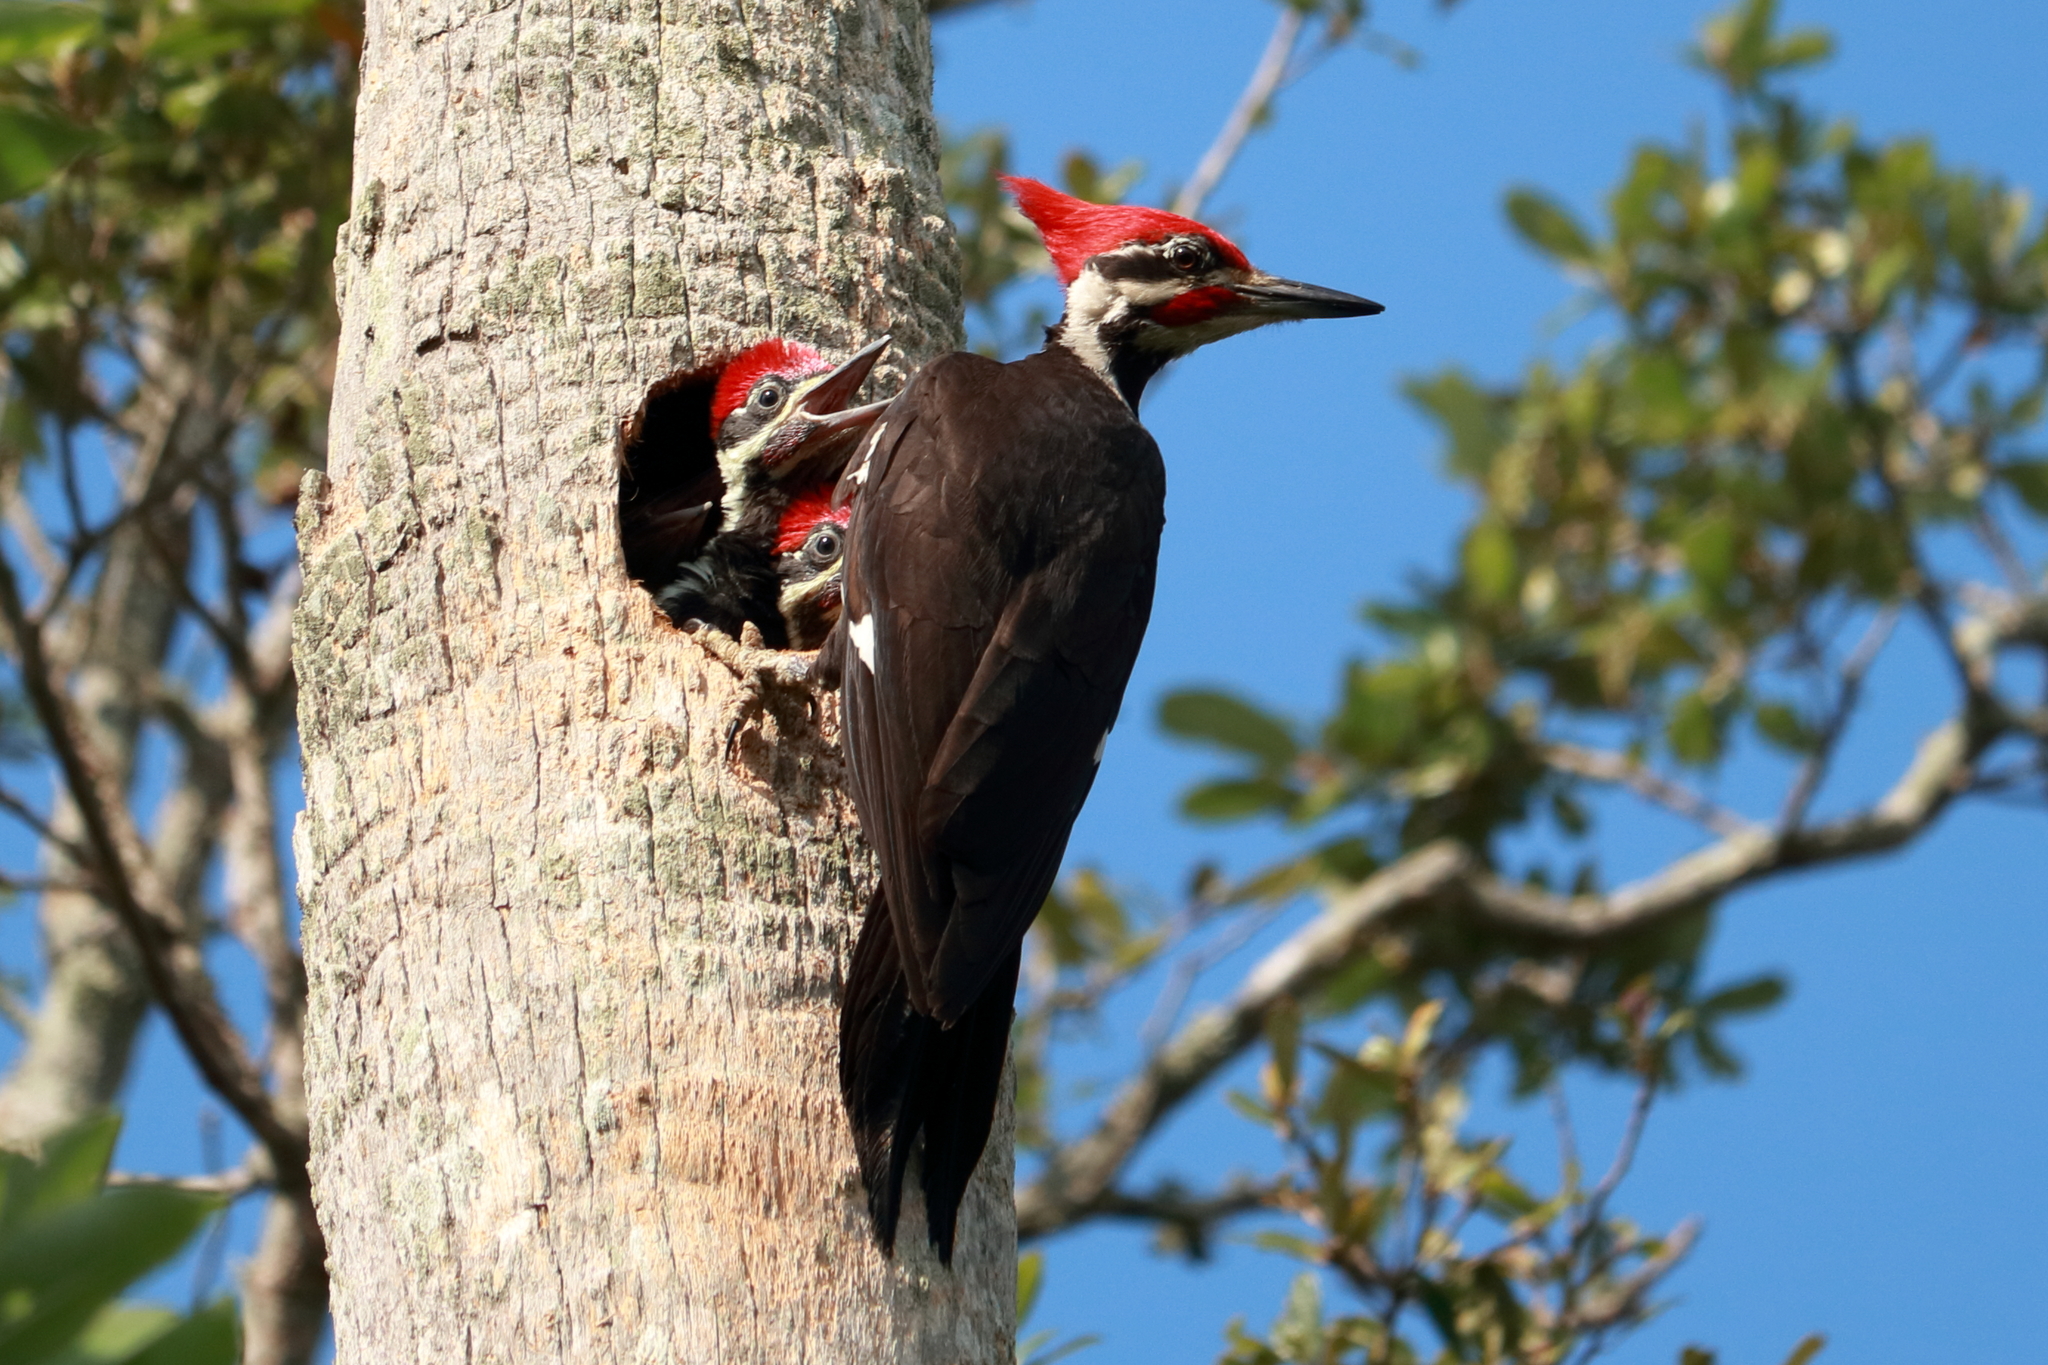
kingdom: Animalia
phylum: Chordata
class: Aves
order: Piciformes
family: Picidae
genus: Dryocopus
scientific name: Dryocopus pileatus
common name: Pileated woodpecker
